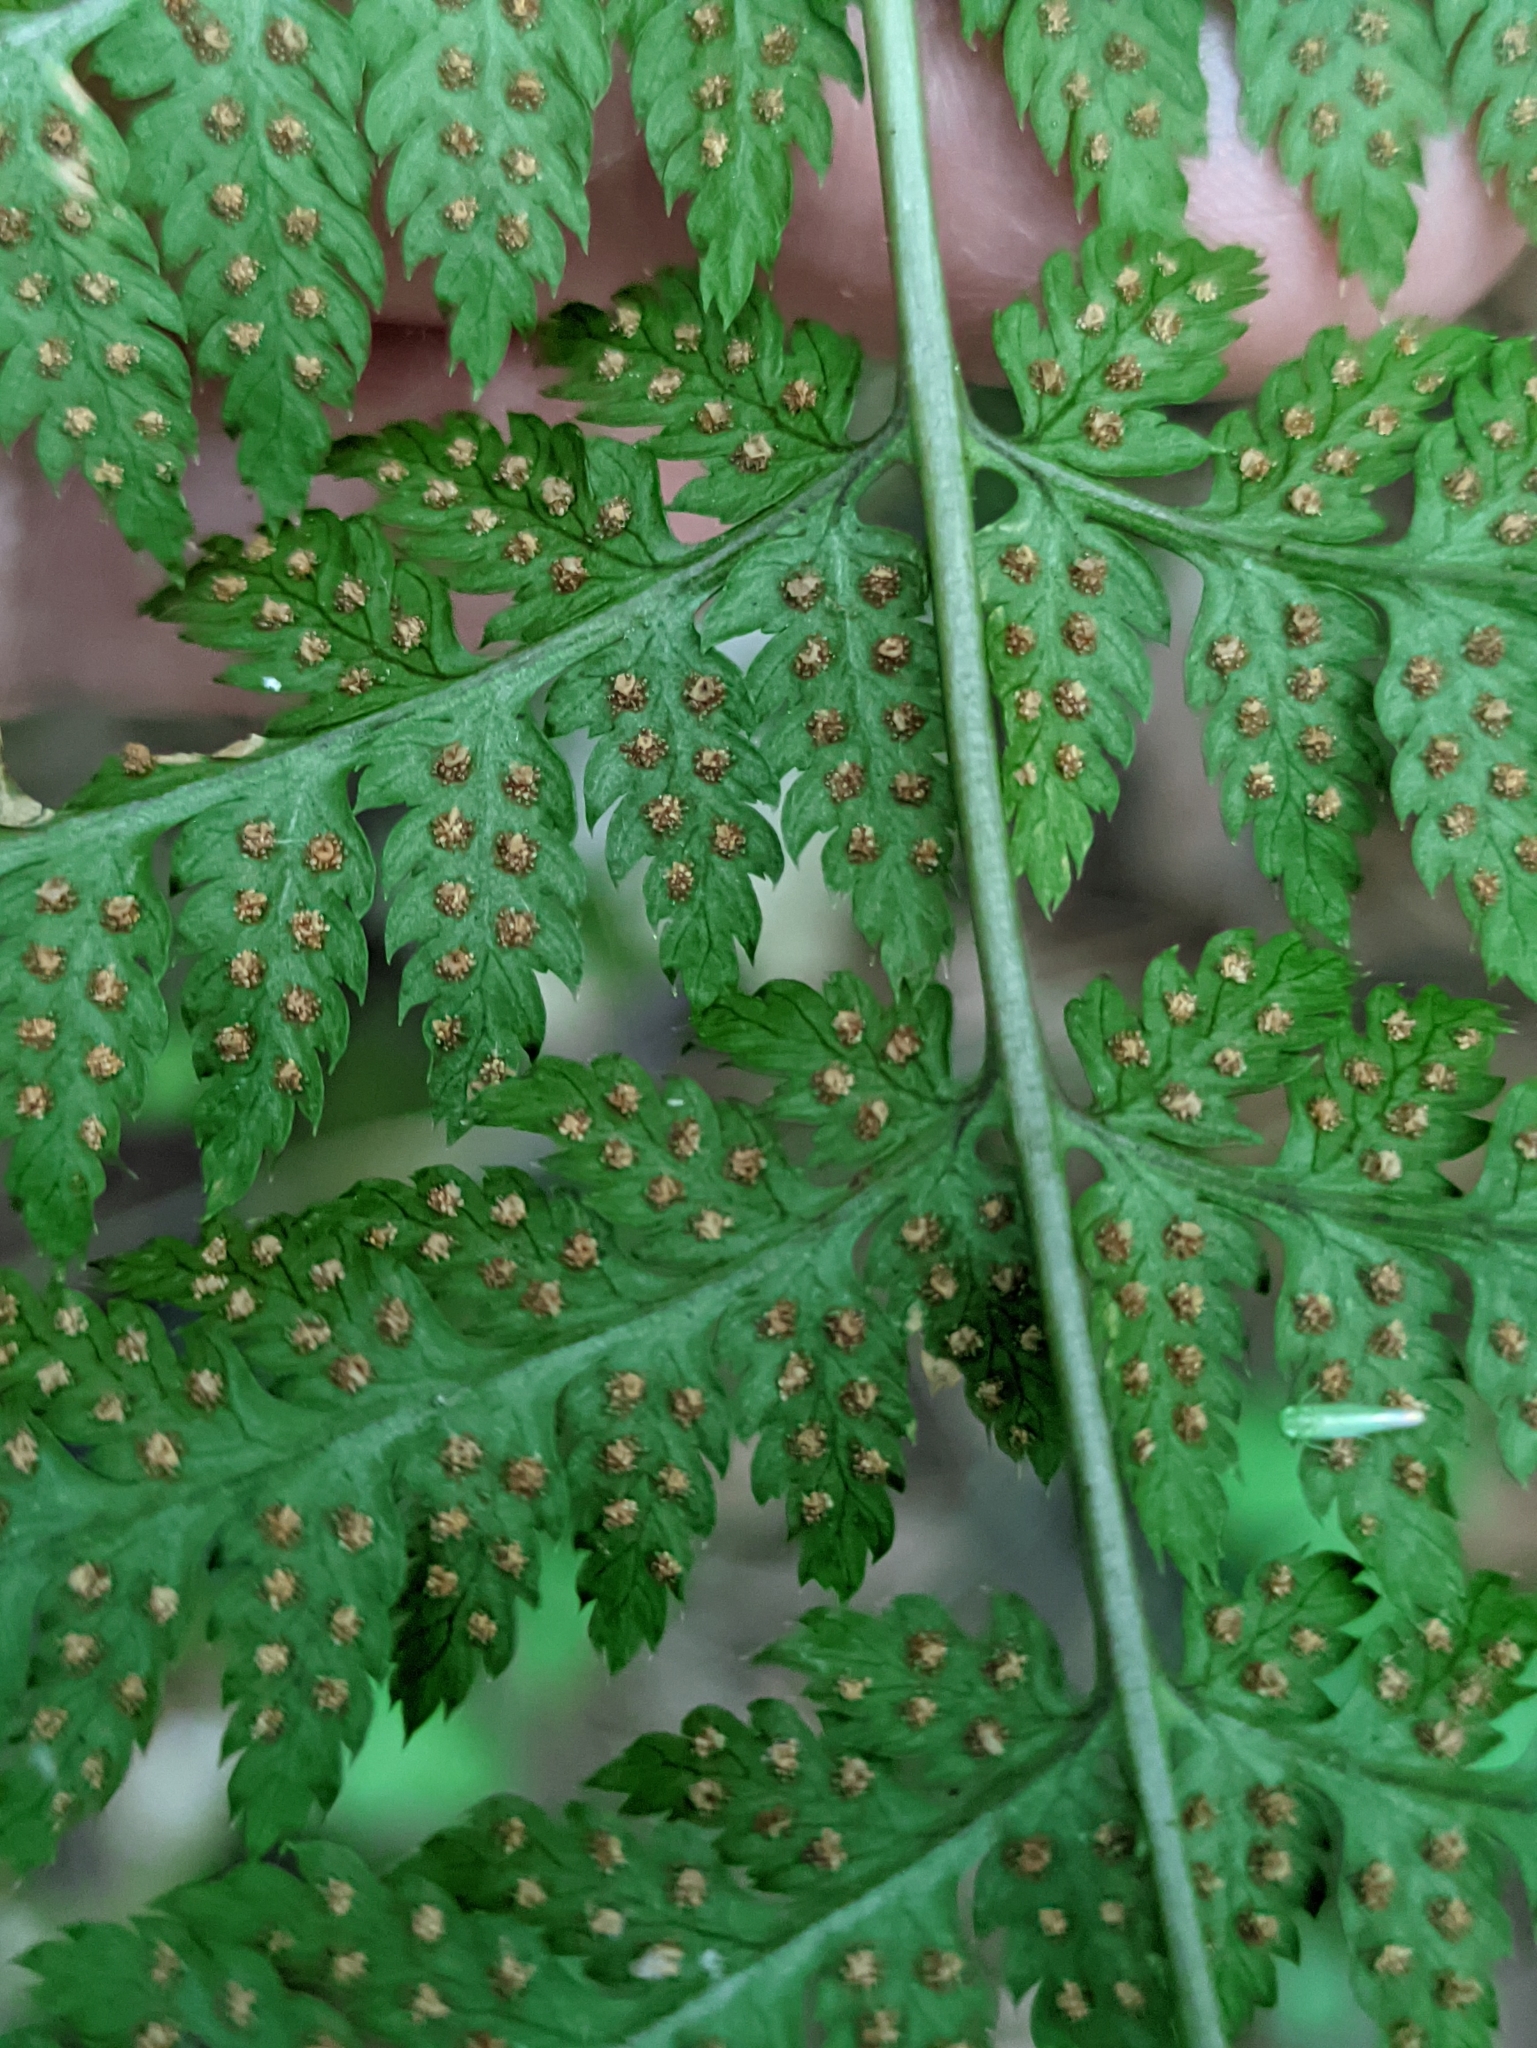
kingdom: Plantae
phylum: Tracheophyta
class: Polypodiopsida
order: Polypodiales
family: Dryopteridaceae
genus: Dryopteris
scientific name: Dryopteris carthusiana
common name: Narrow buckler-fern
